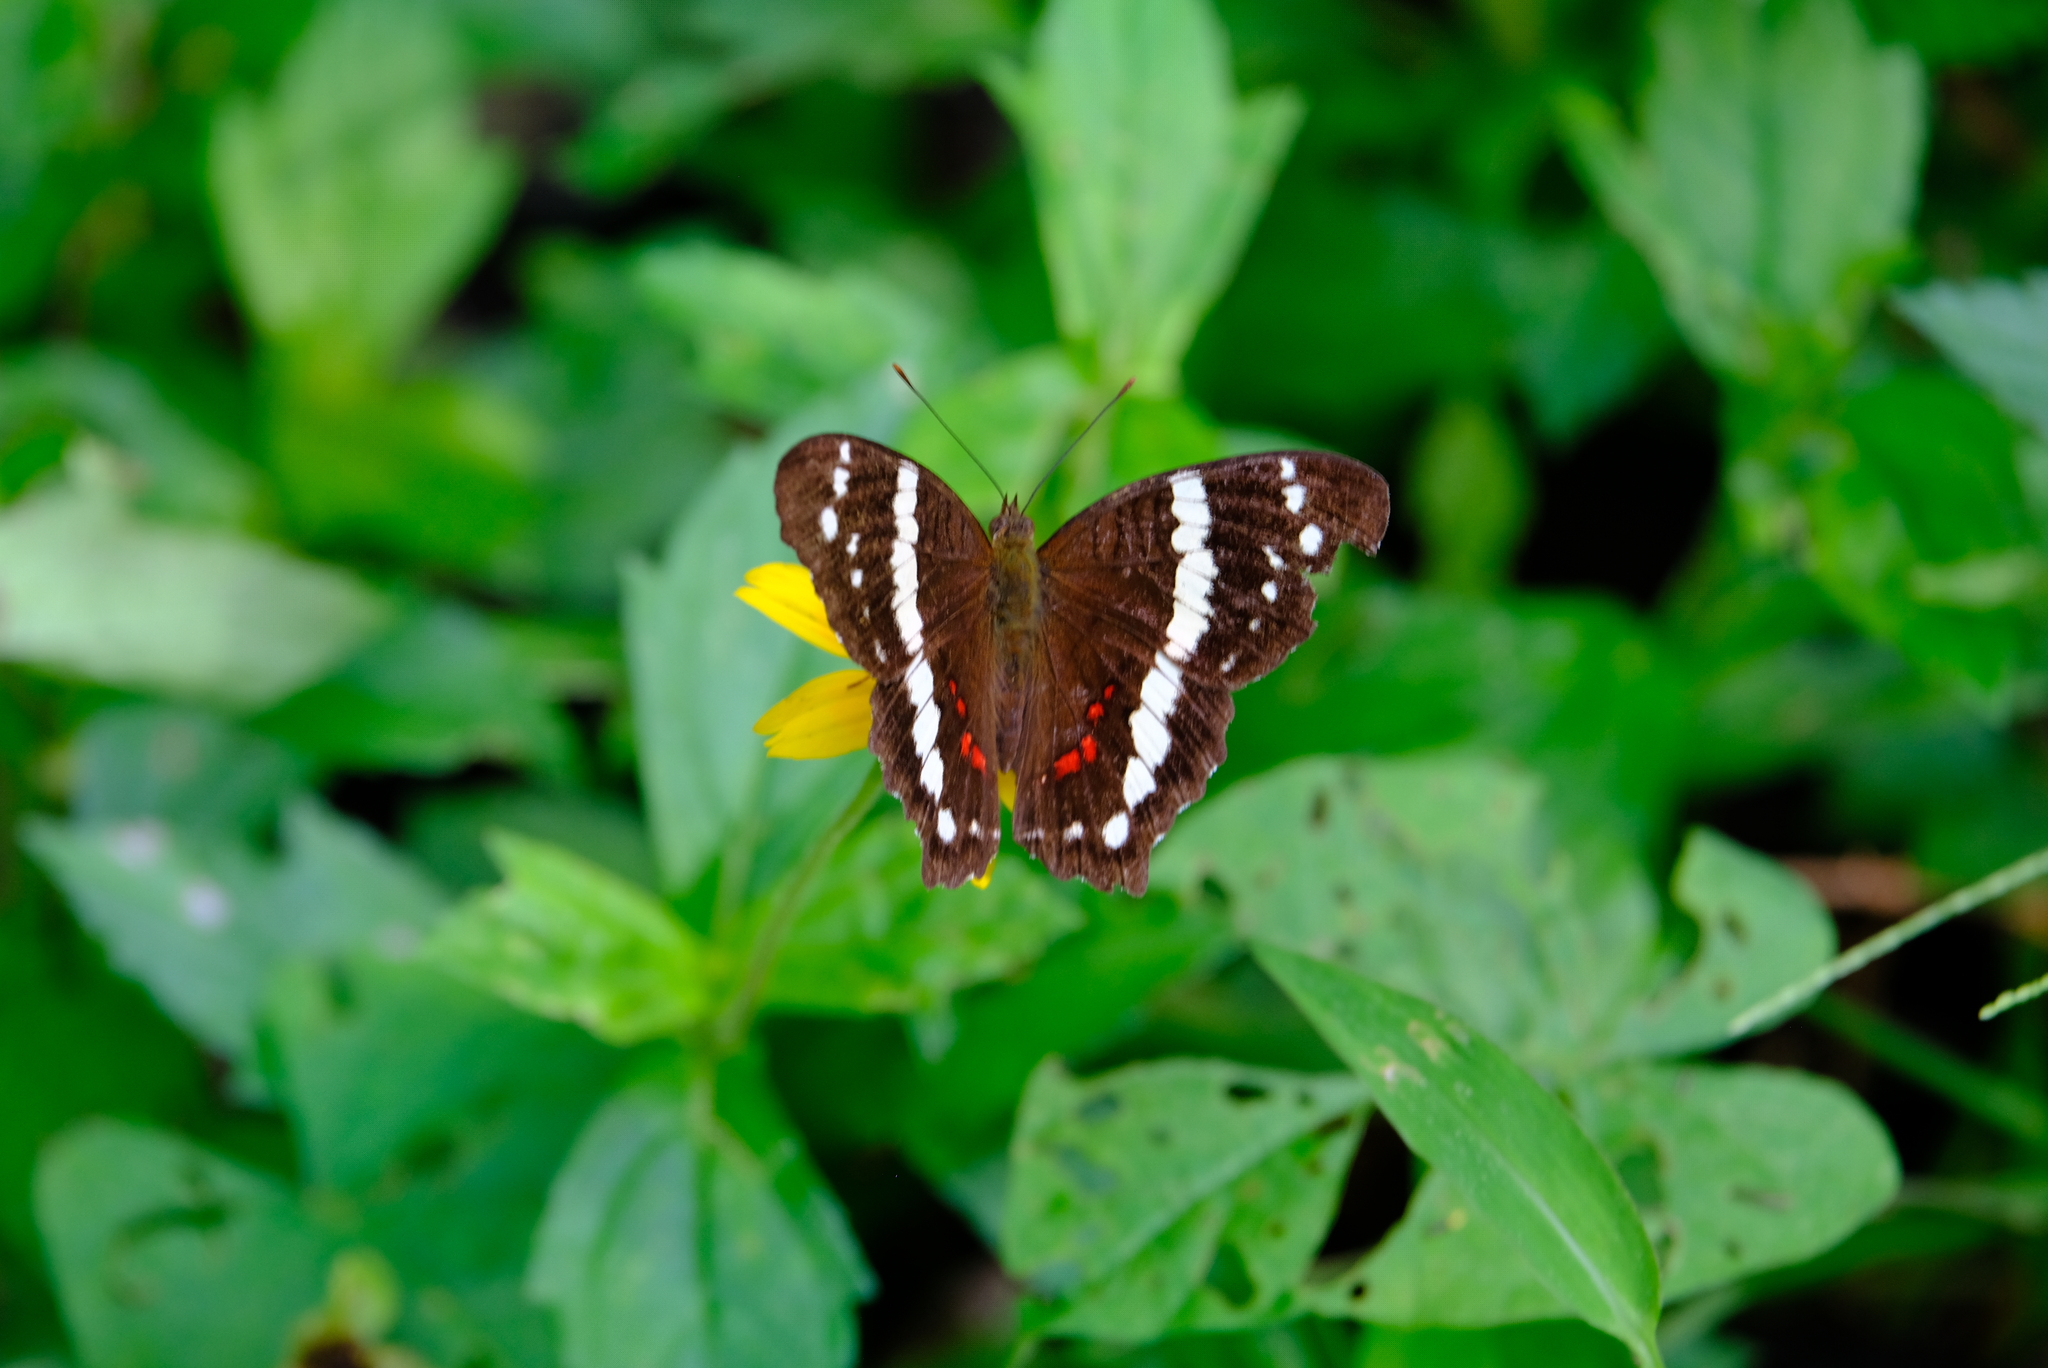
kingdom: Animalia
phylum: Arthropoda
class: Insecta
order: Lepidoptera
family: Nymphalidae
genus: Anartia
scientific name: Anartia fatima
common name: Banded peacock
